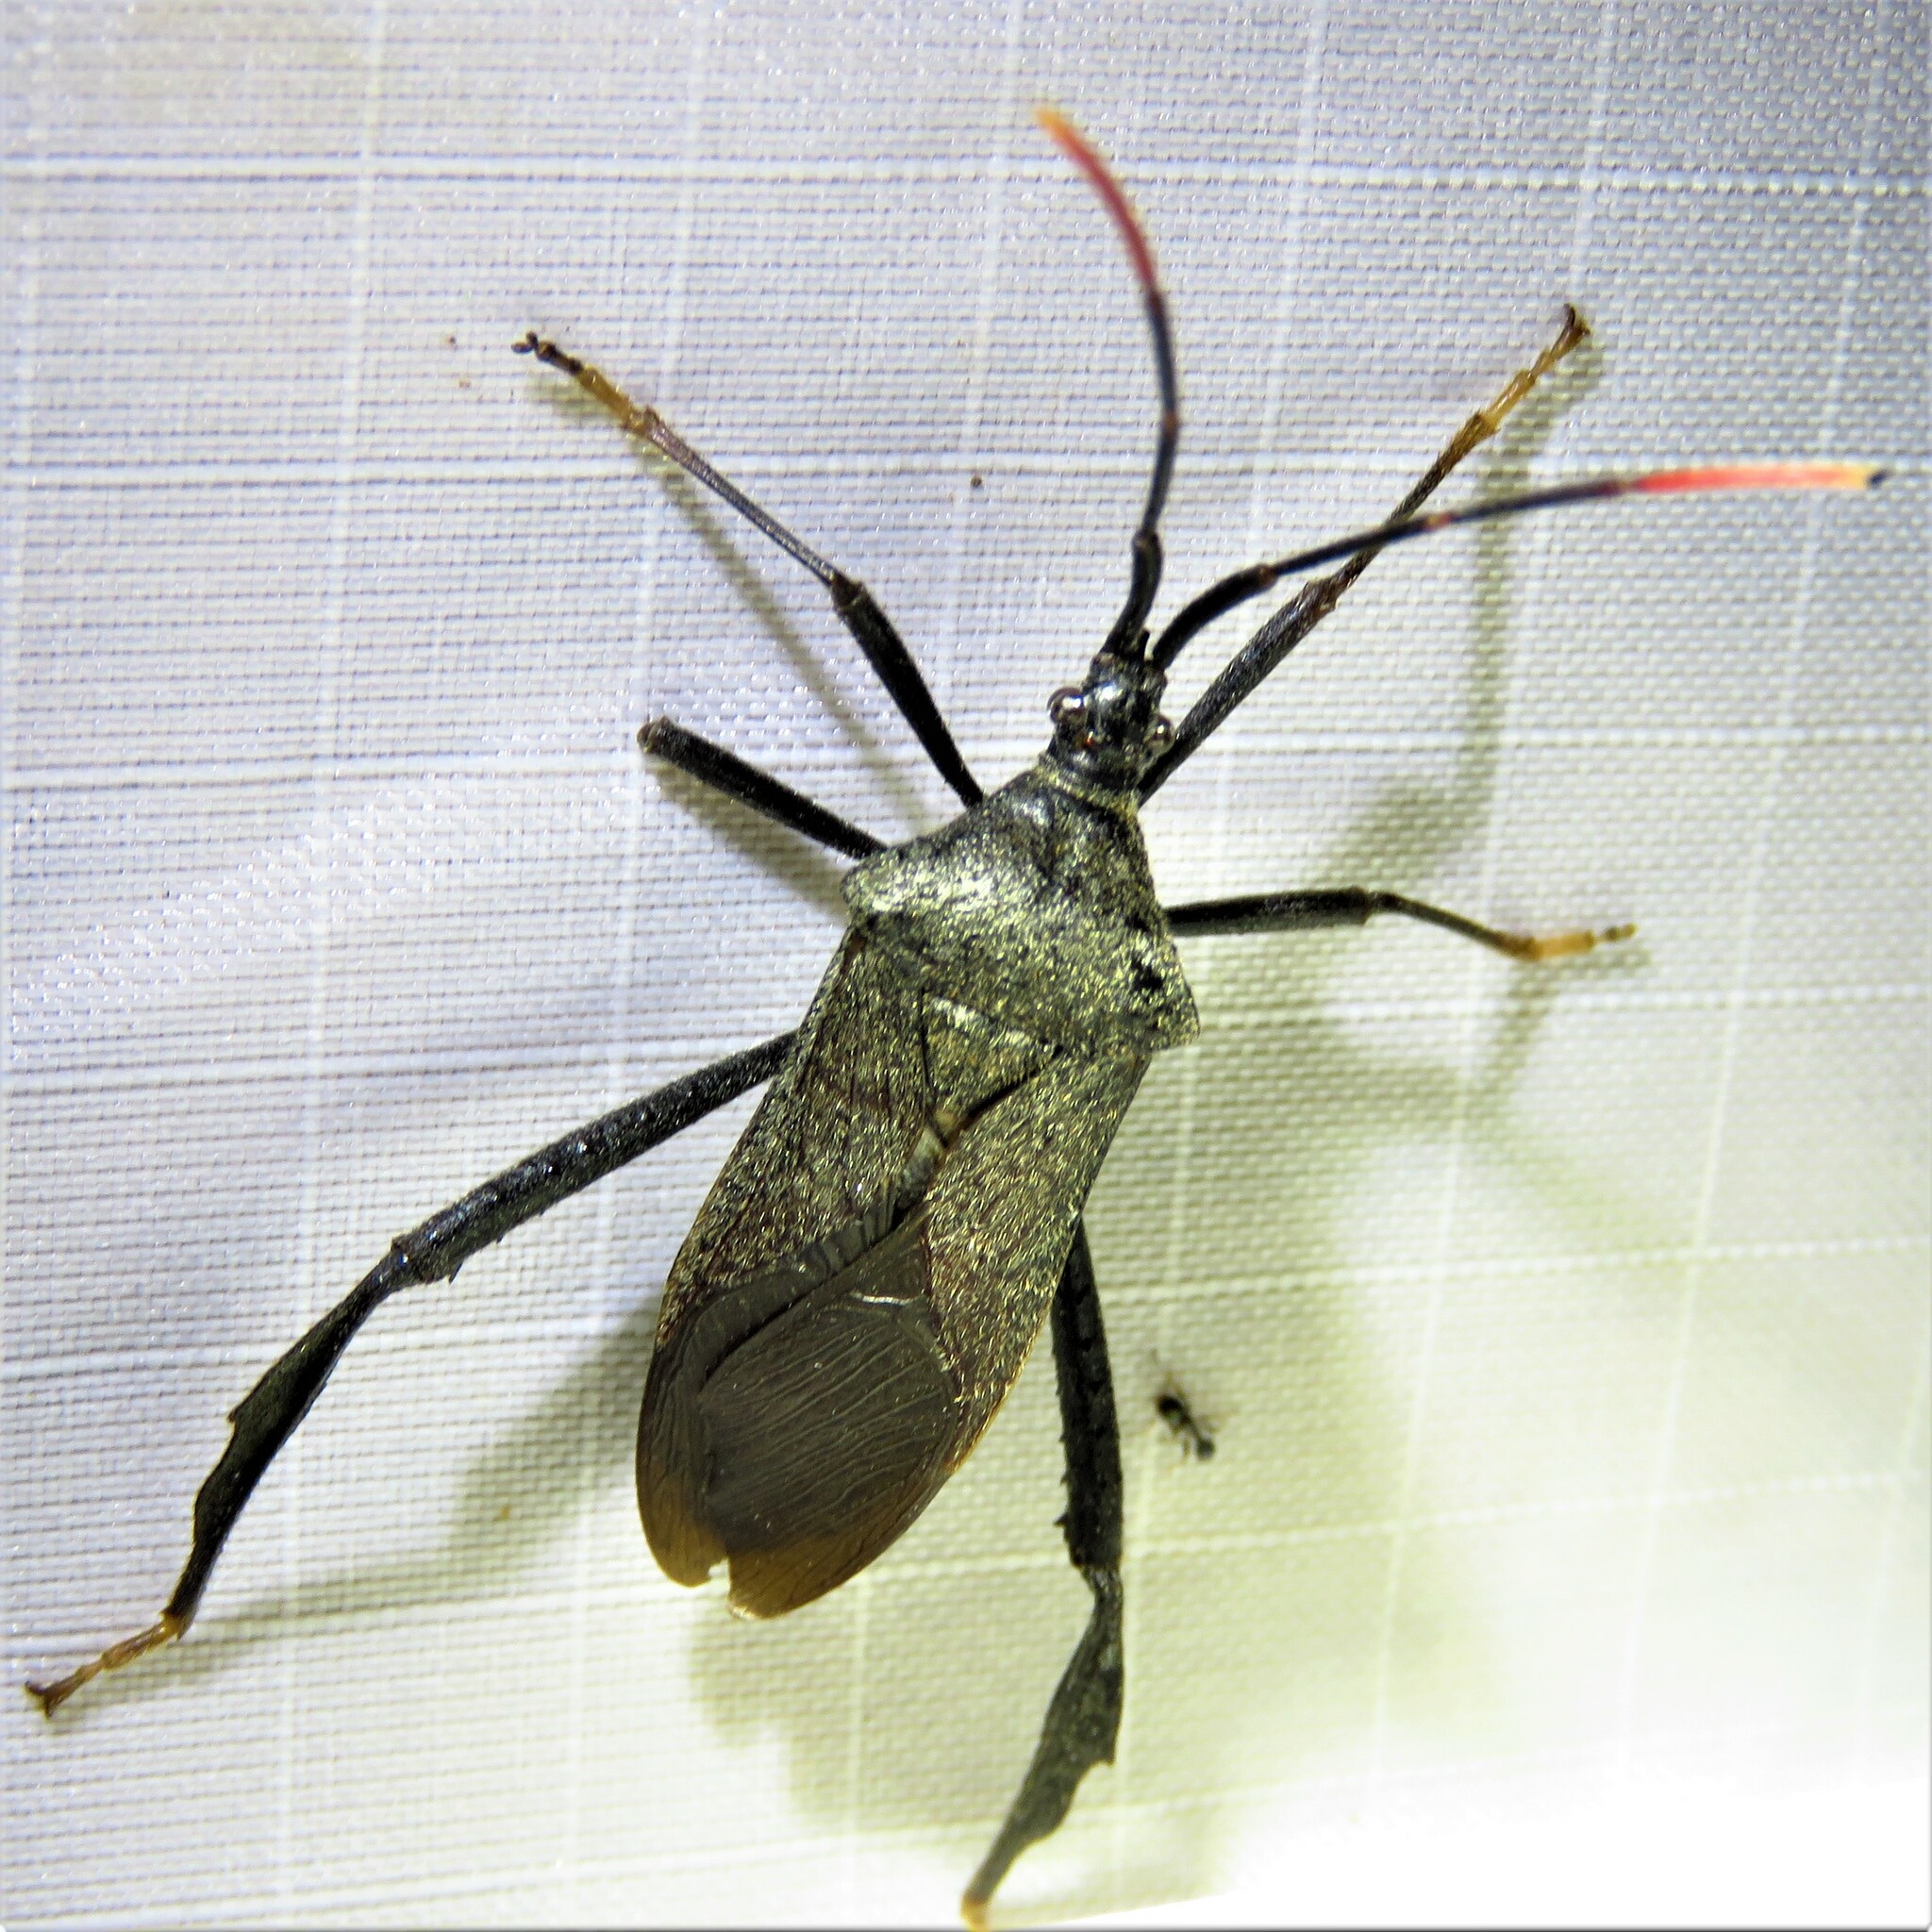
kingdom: Animalia
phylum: Arthropoda
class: Insecta
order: Hemiptera
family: Coreidae
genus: Acanthocephala
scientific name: Acanthocephala terminalis
